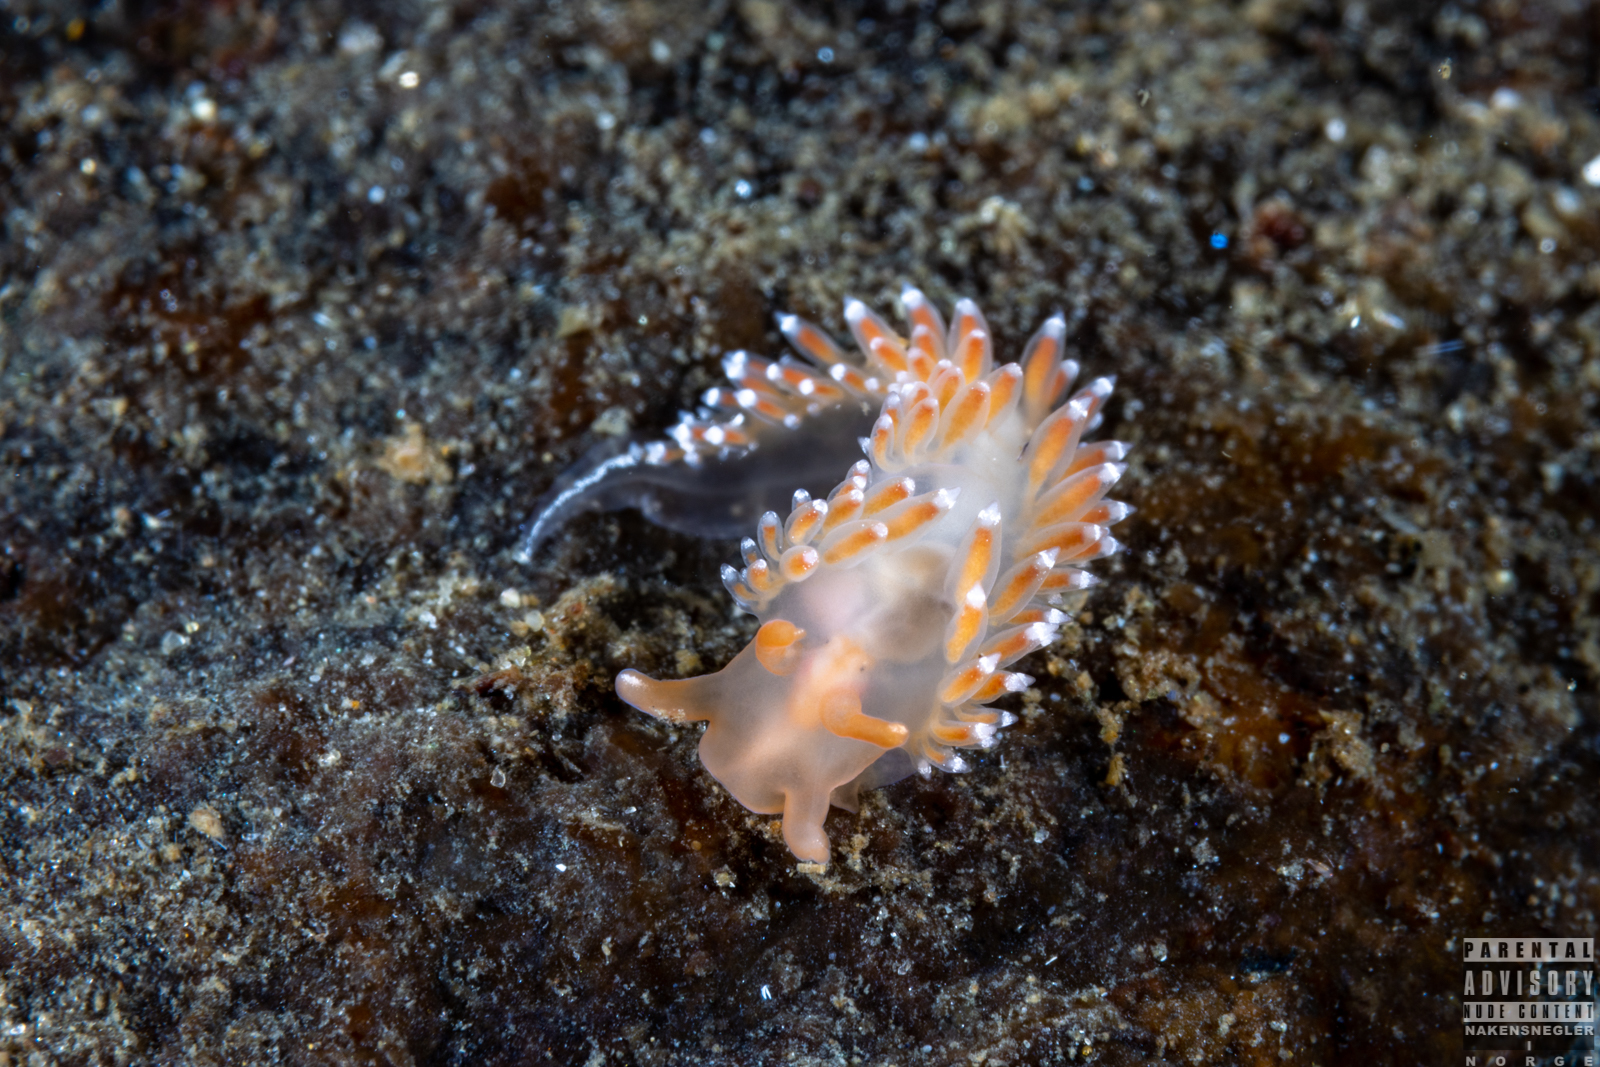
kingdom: Animalia
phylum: Mollusca
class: Gastropoda
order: Nudibranchia
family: Coryphellidae
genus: Coryphella
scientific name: Coryphella verrucosa
